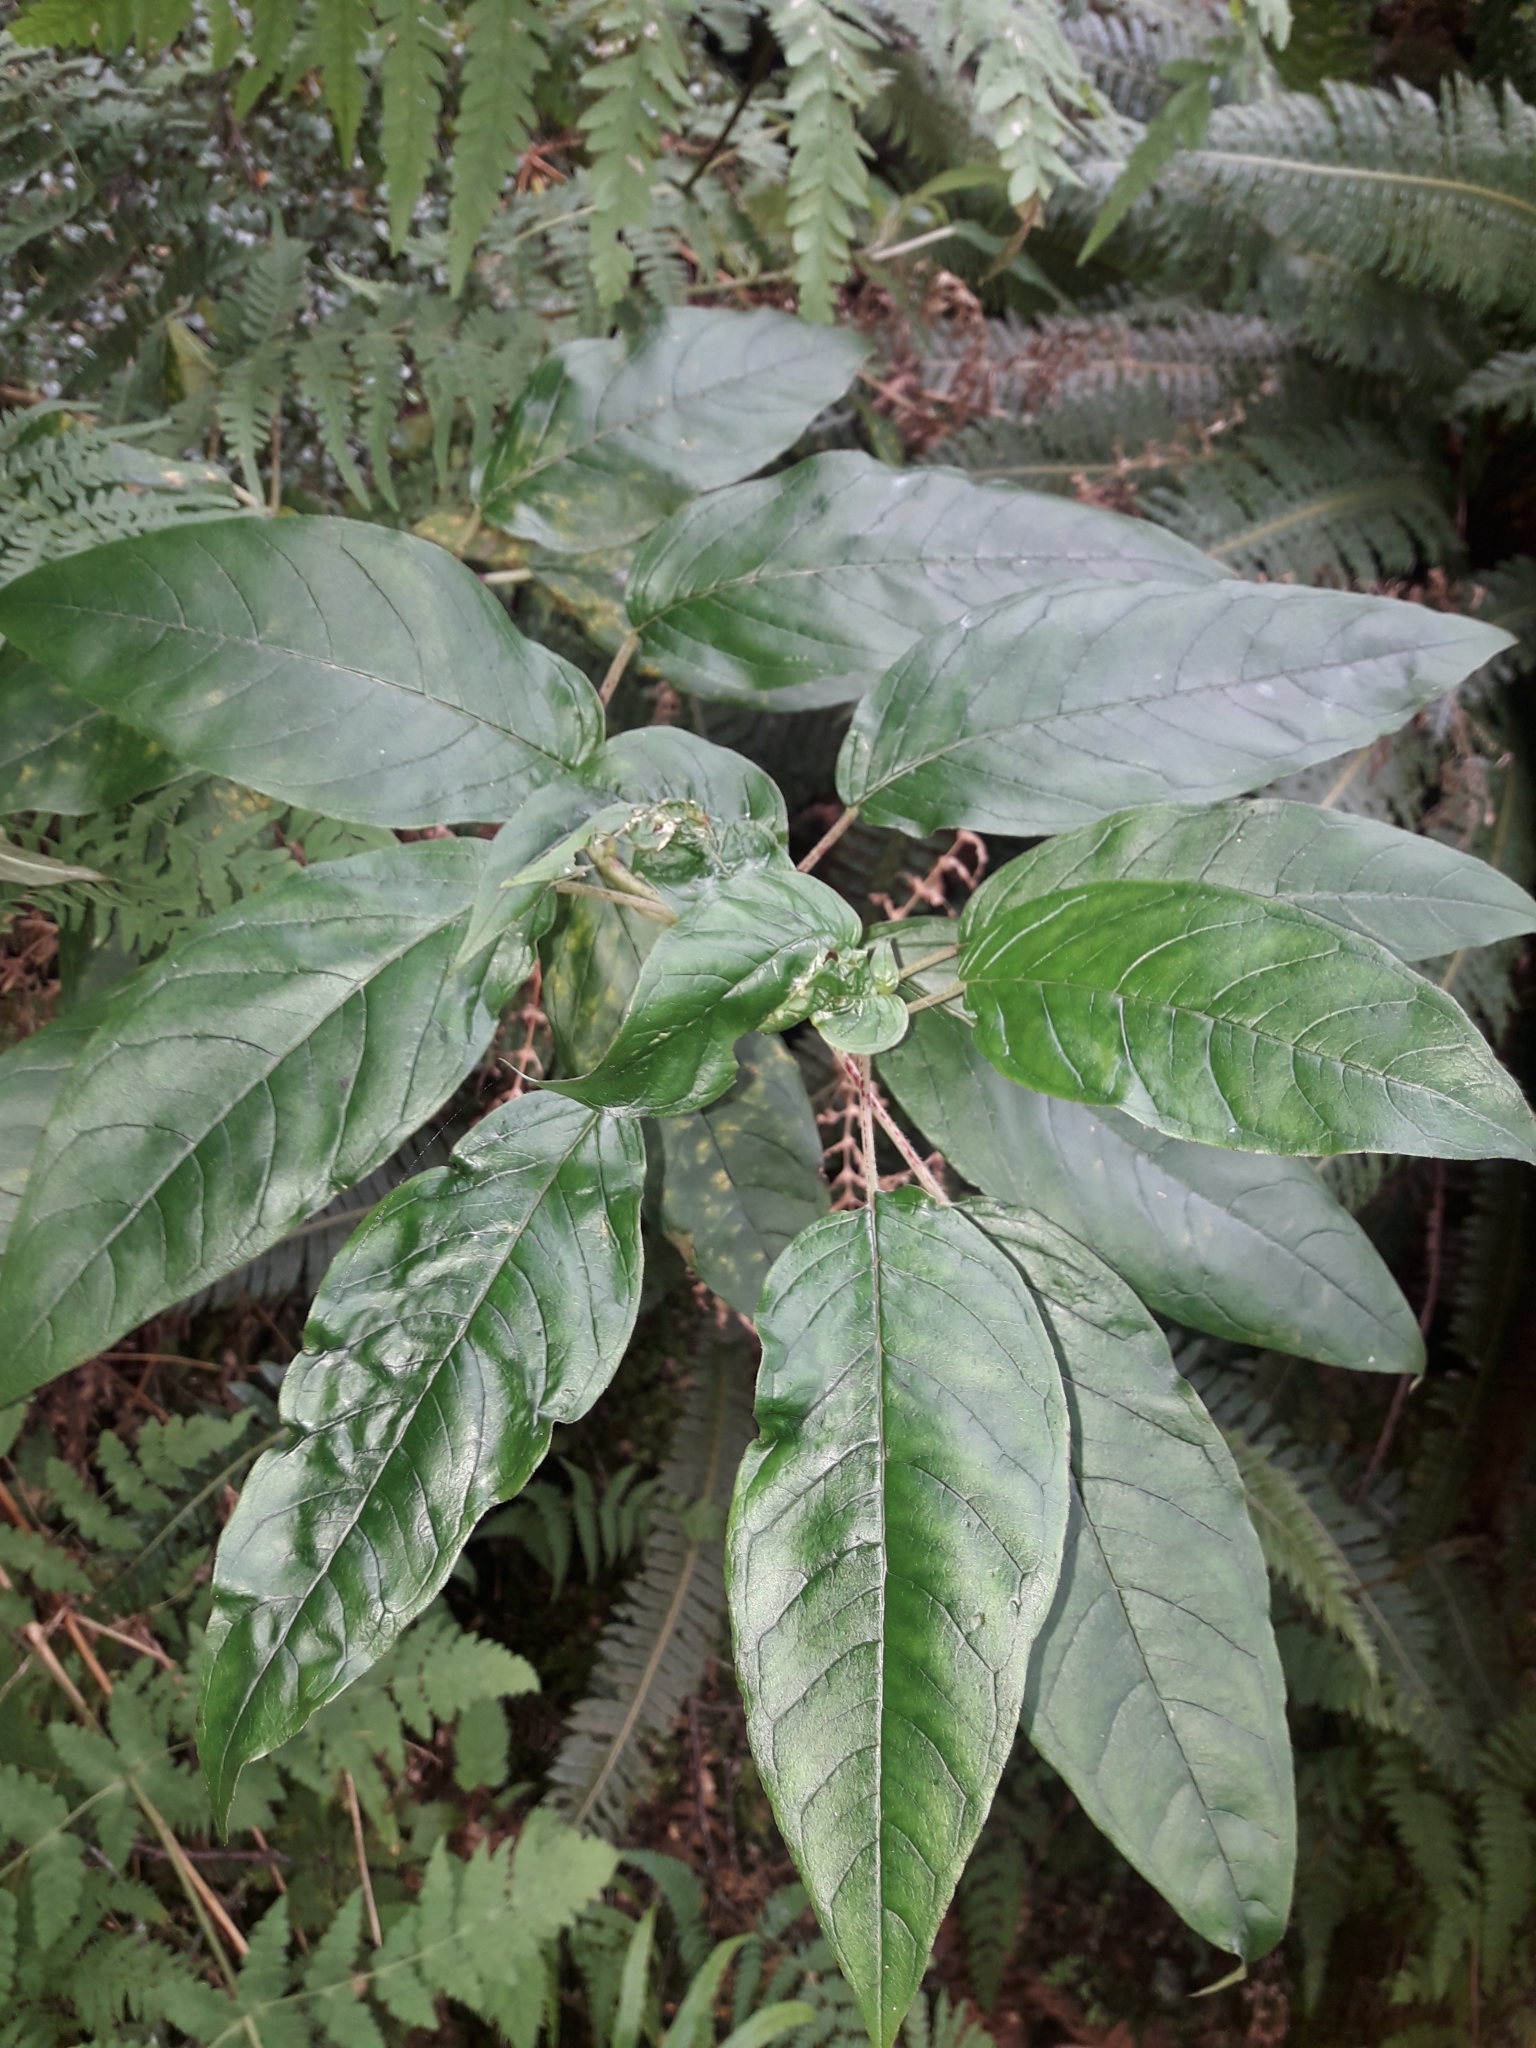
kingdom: Plantae
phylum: Tracheophyta
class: Magnoliopsida
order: Myrtales
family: Onagraceae
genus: Fuchsia
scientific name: Fuchsia excorticata
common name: Tree fuchsia
